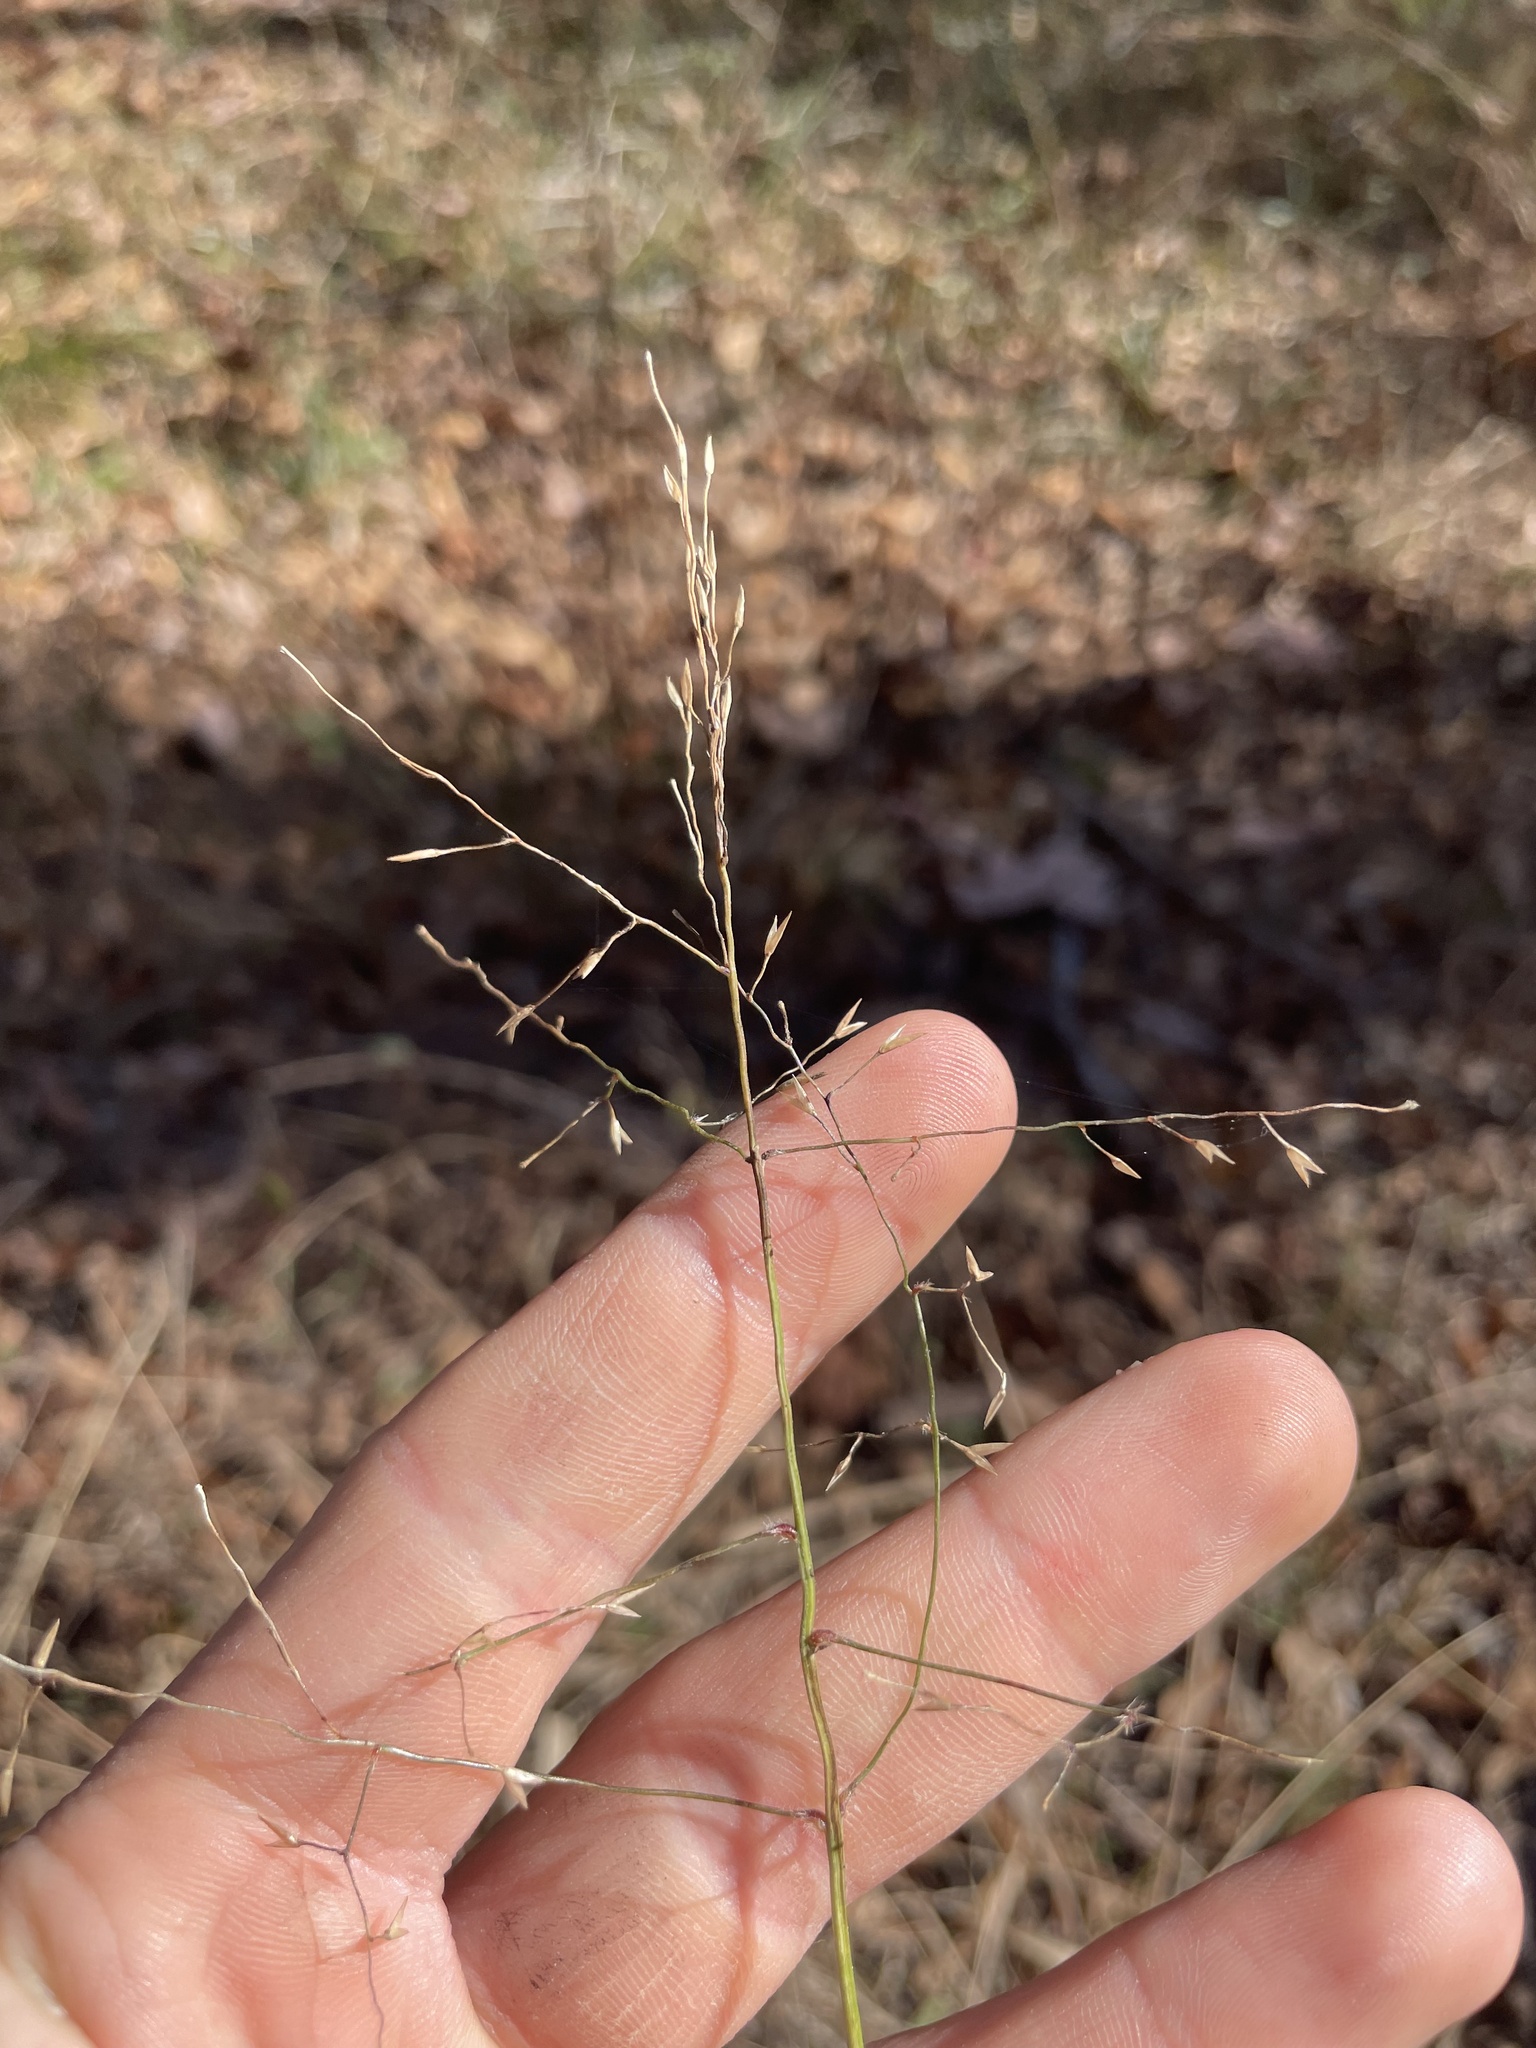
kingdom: Plantae
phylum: Tracheophyta
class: Liliopsida
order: Poales
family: Poaceae
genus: Tridens
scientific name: Tridens chapmanii
